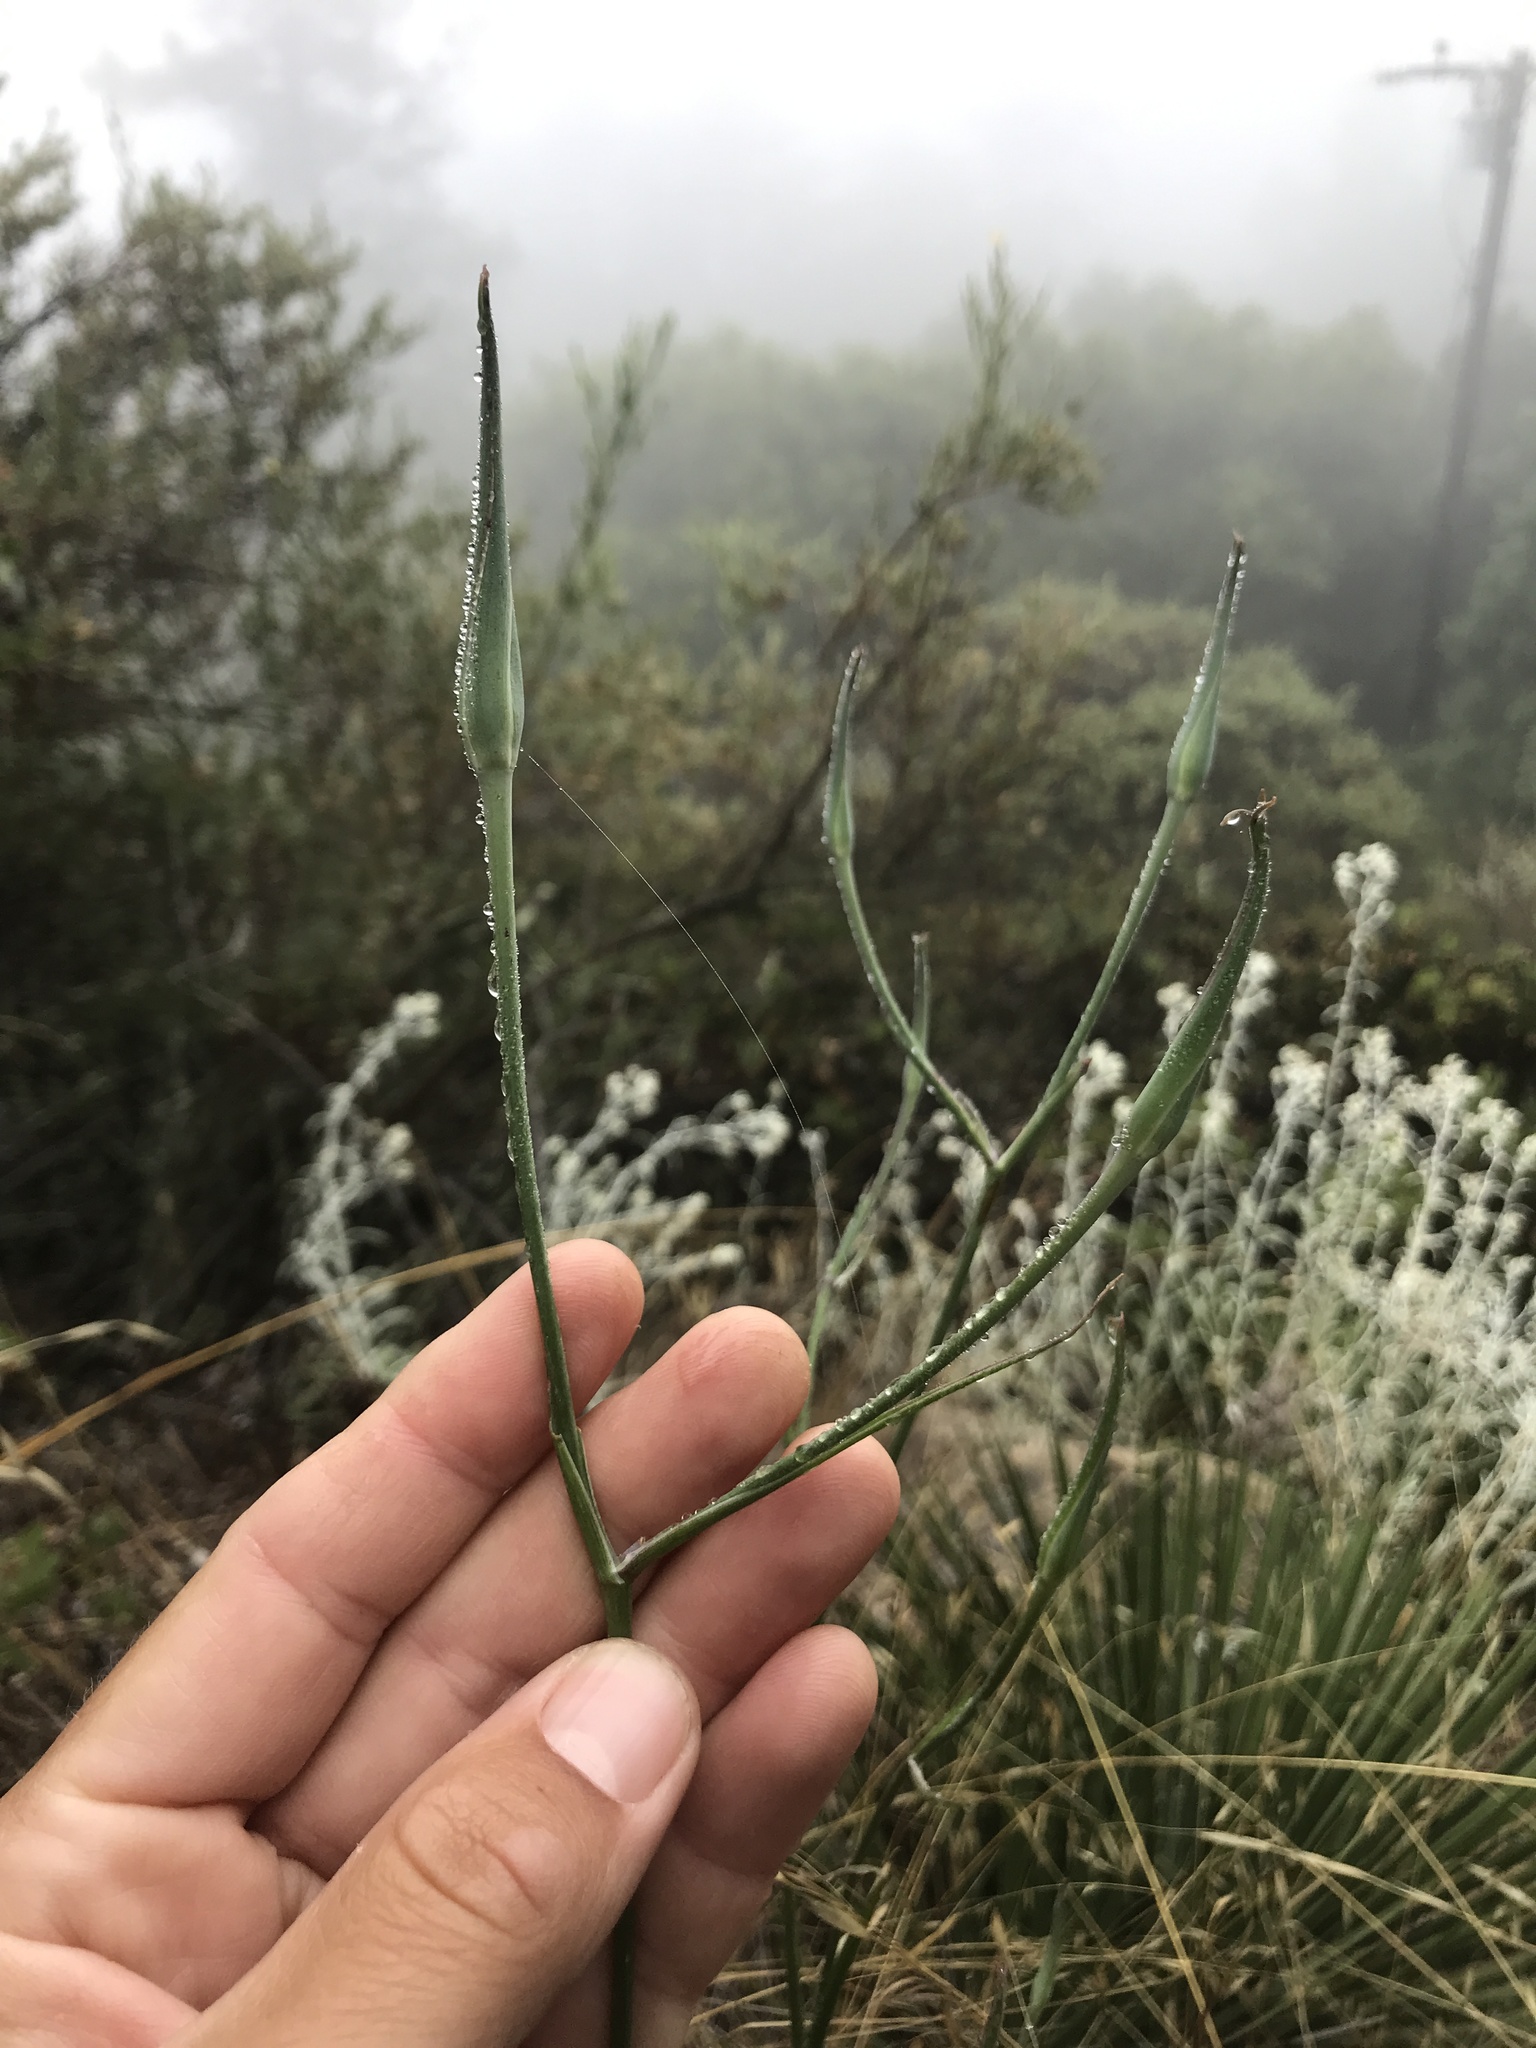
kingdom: Plantae
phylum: Tracheophyta
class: Liliopsida
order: Liliales
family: Liliaceae
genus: Calochortus
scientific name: Calochortus fimbriatus
